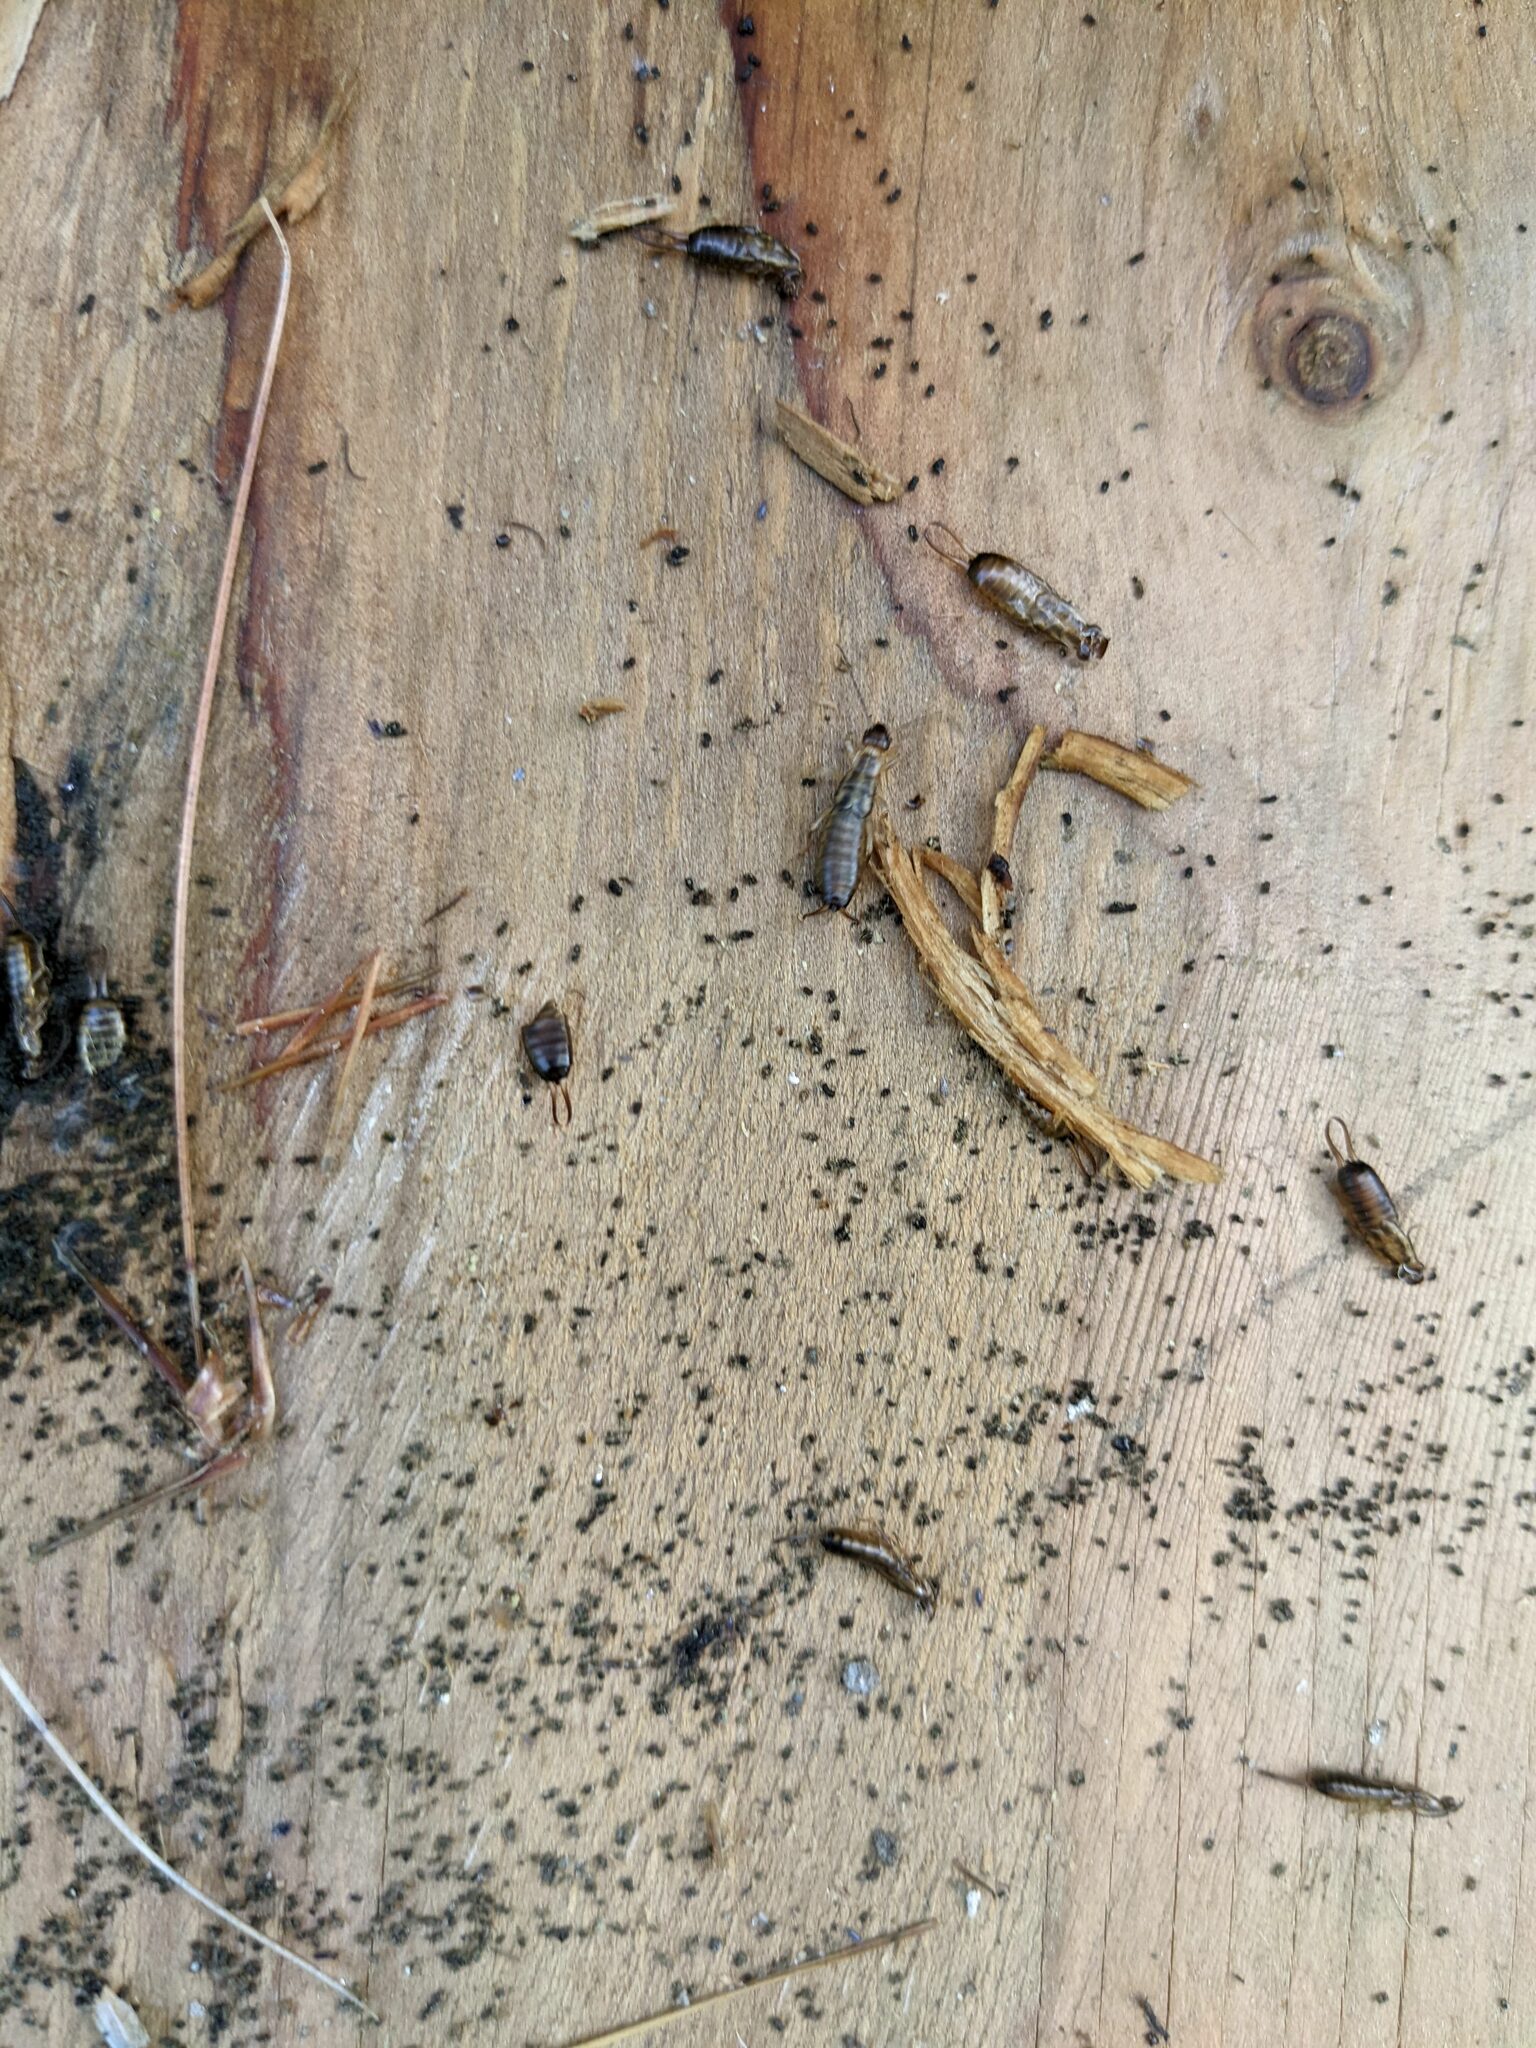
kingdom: Animalia
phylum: Arthropoda
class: Insecta
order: Dermaptera
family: Forficulidae
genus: Forficula
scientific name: Forficula
